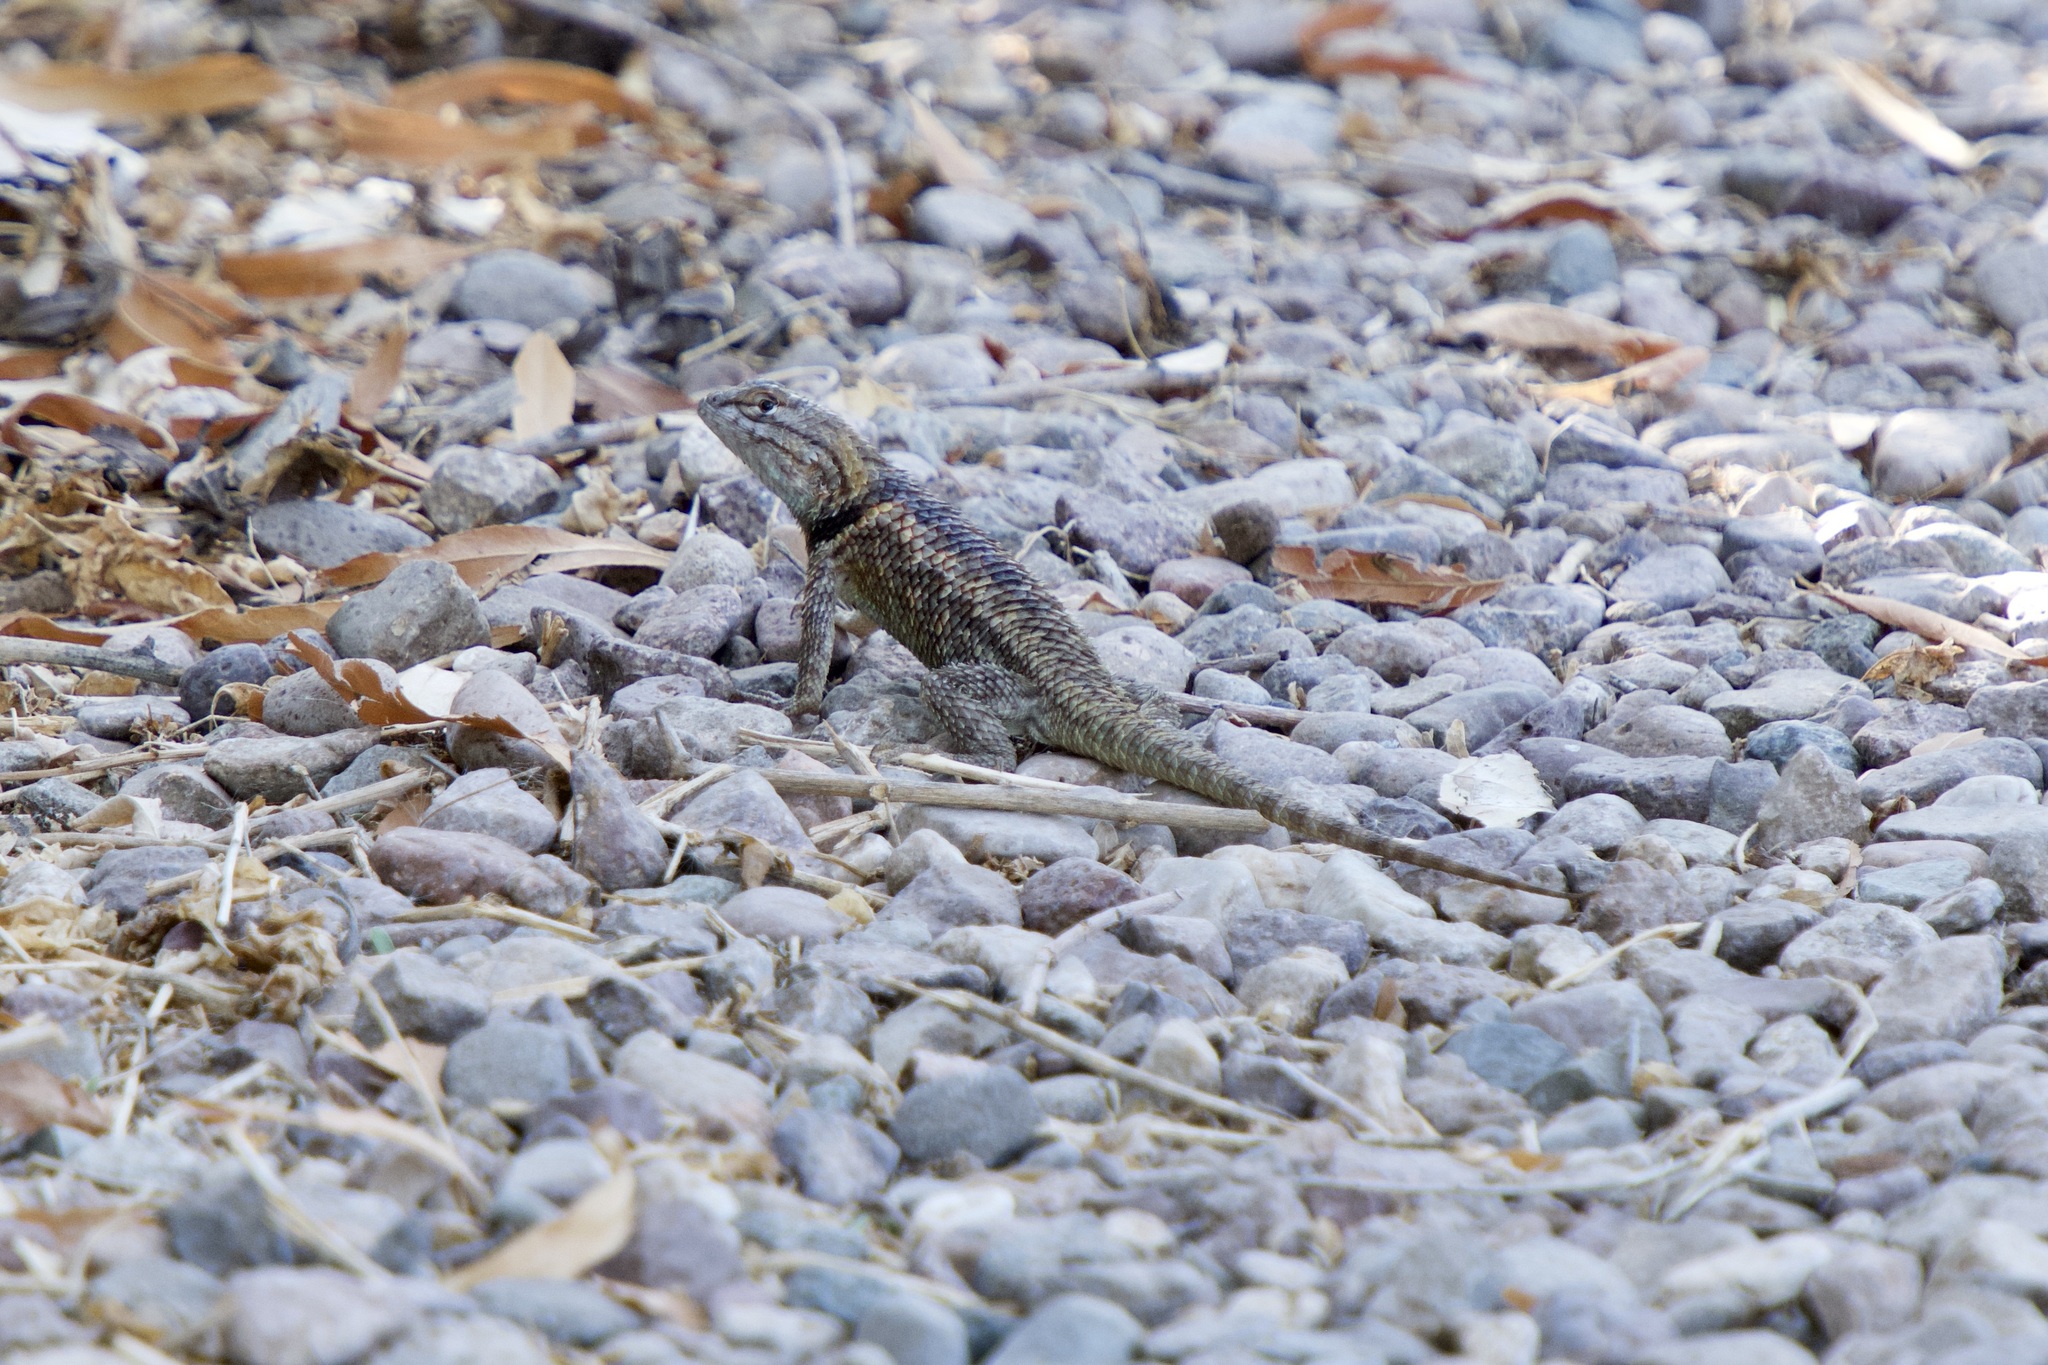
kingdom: Animalia
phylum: Chordata
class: Squamata
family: Phrynosomatidae
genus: Sceloporus
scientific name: Sceloporus magister
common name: Desert spiny lizard
